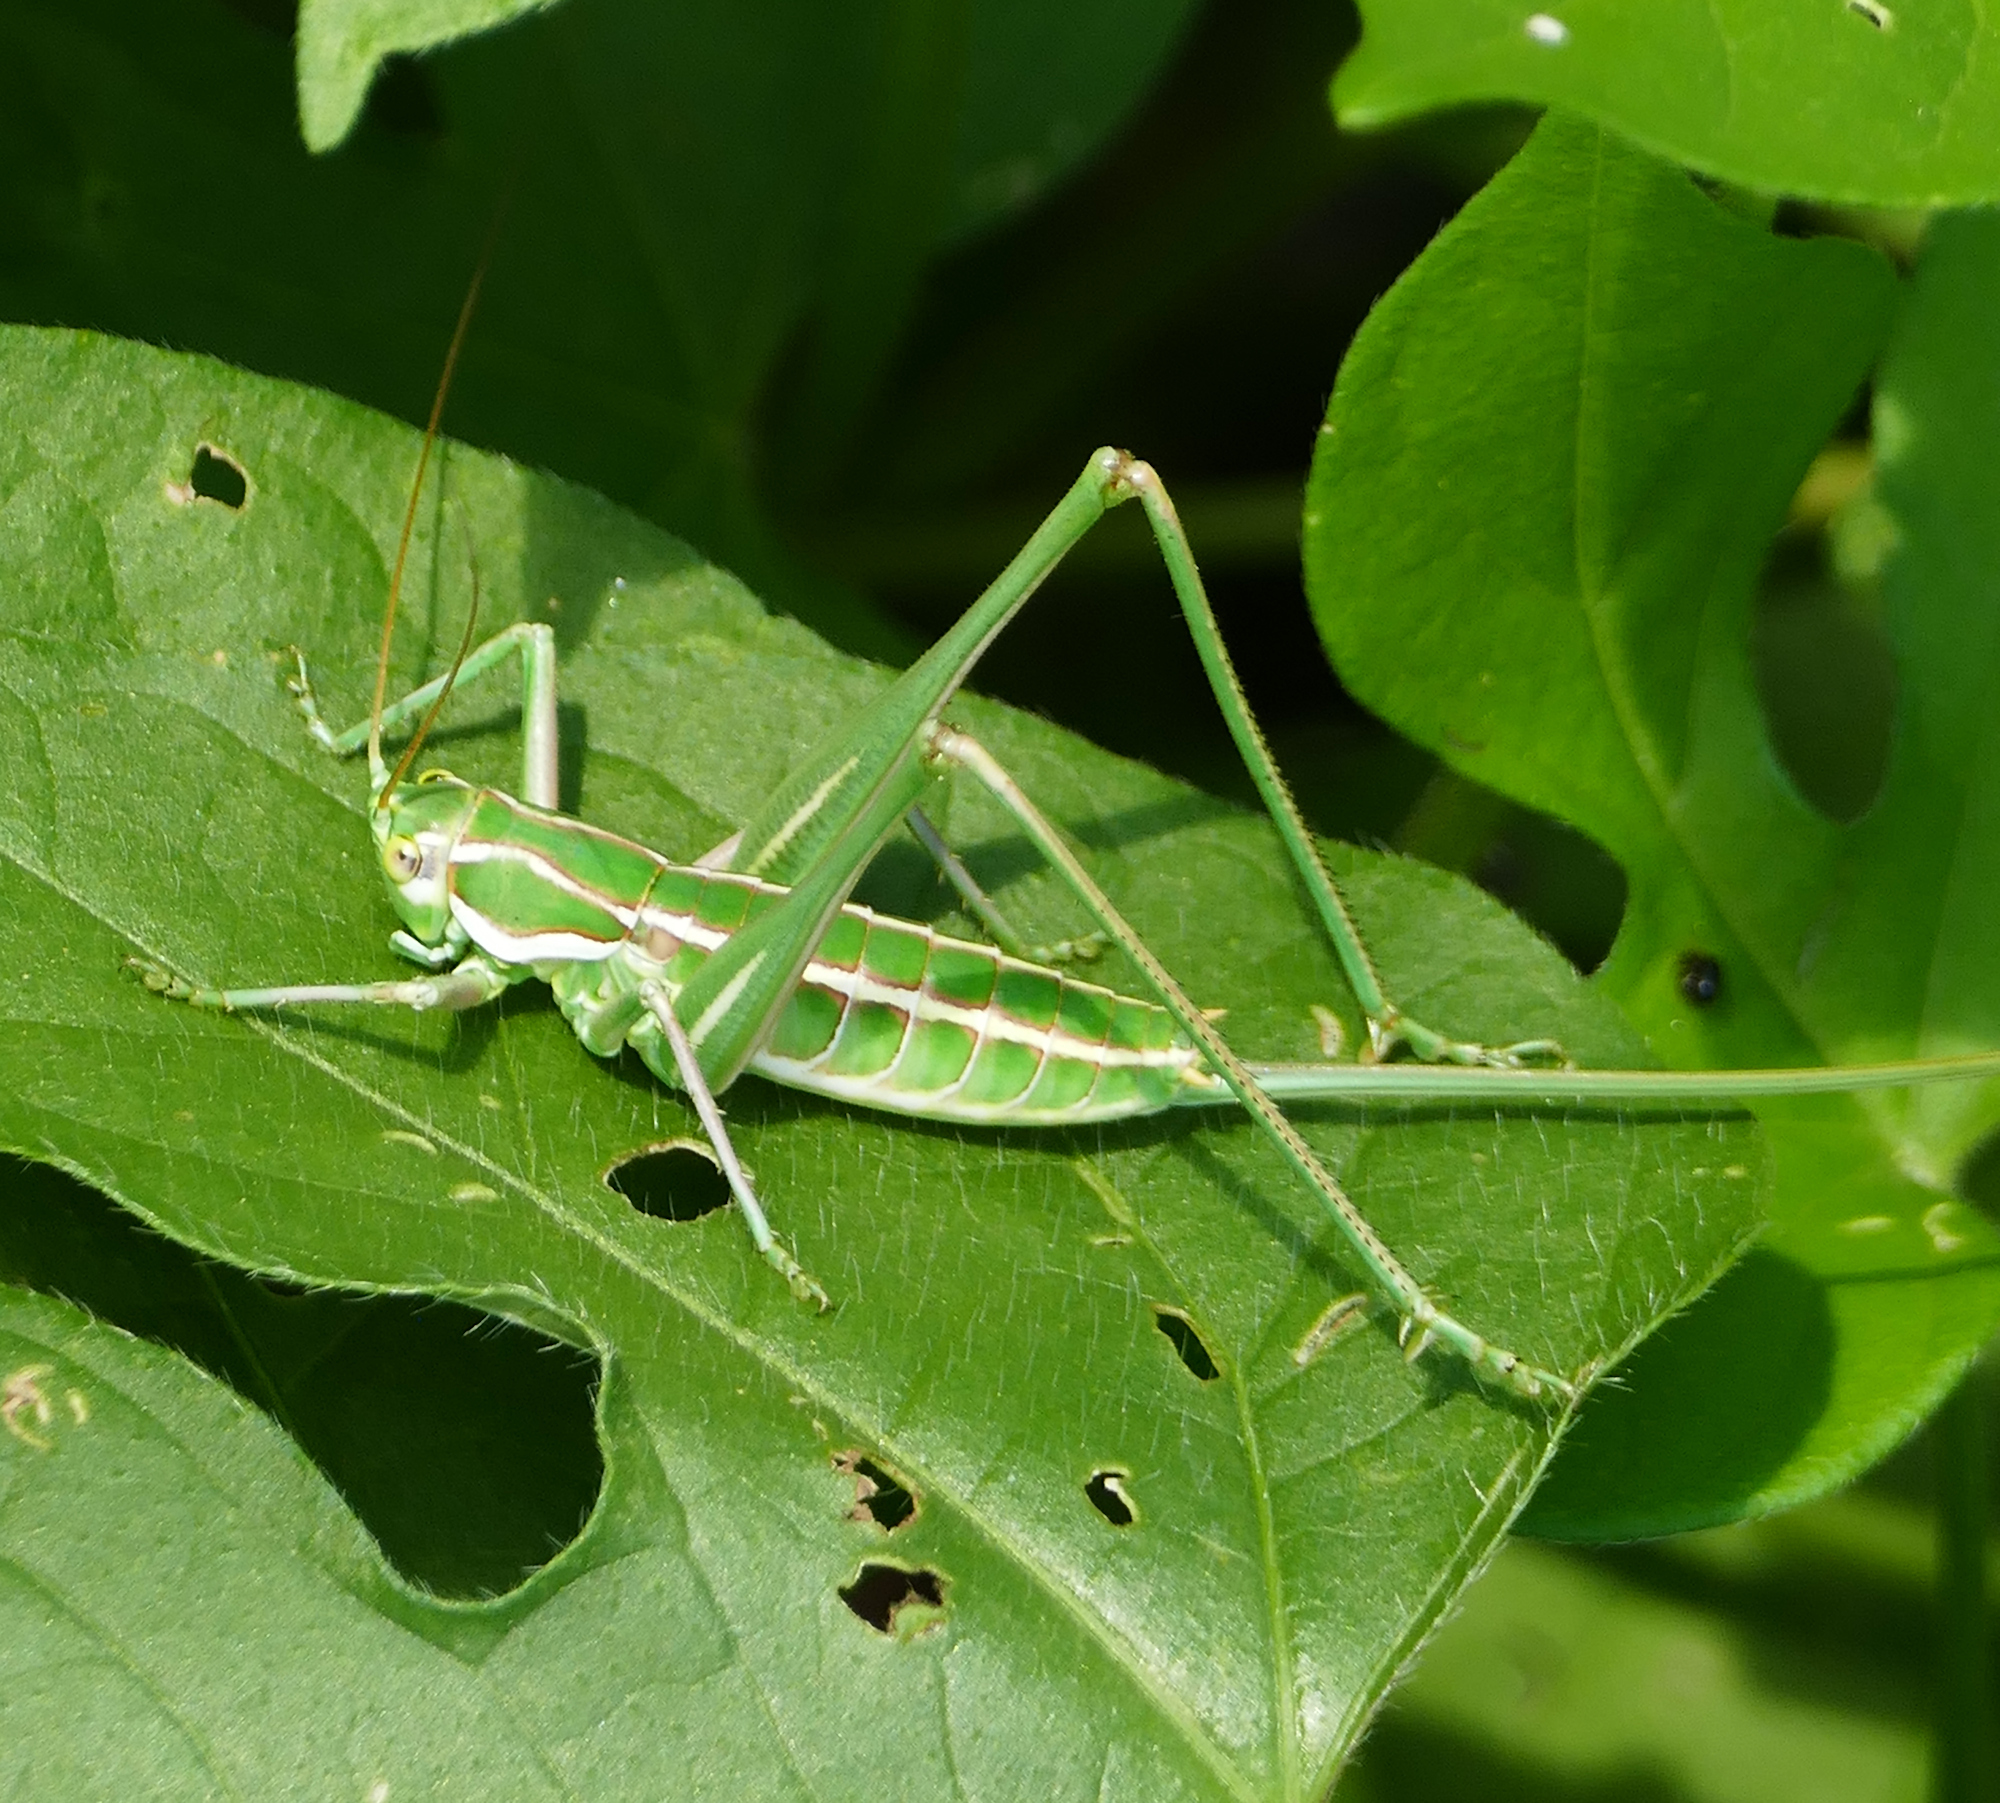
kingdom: Animalia
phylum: Arthropoda
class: Insecta
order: Orthoptera
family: Tettigoniidae
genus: Eremopedes
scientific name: Eremopedes bilineatus
